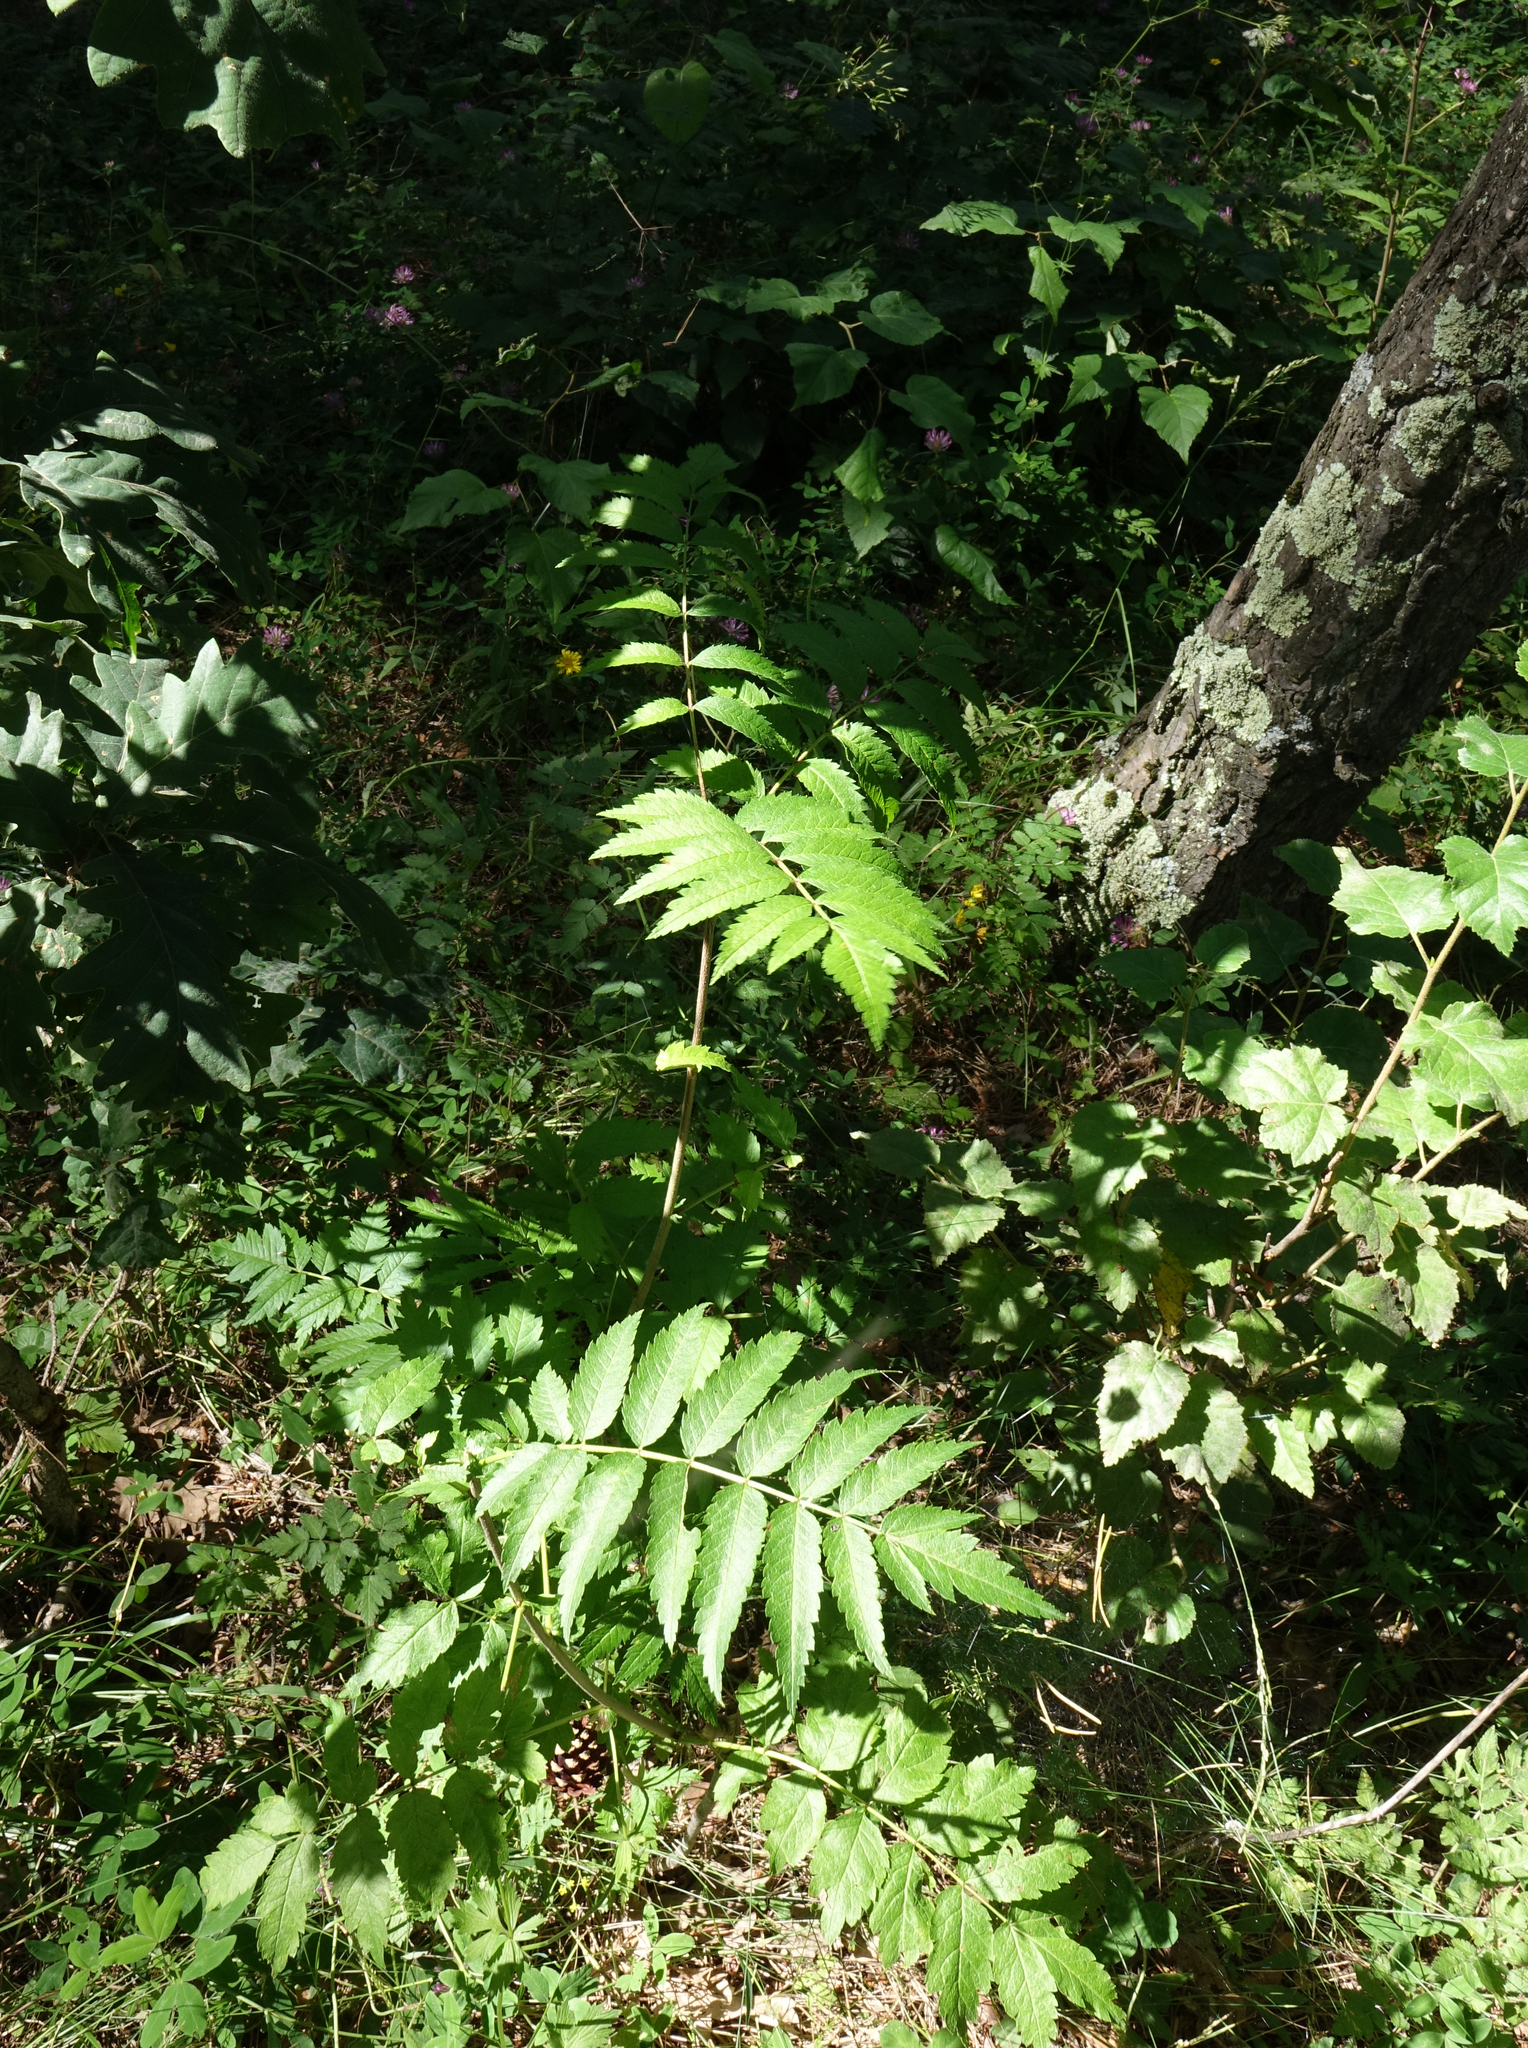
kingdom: Plantae
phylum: Tracheophyta
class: Magnoliopsida
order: Rosales
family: Rosaceae
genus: Sorbus
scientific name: Sorbus aucuparia
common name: Rowan
